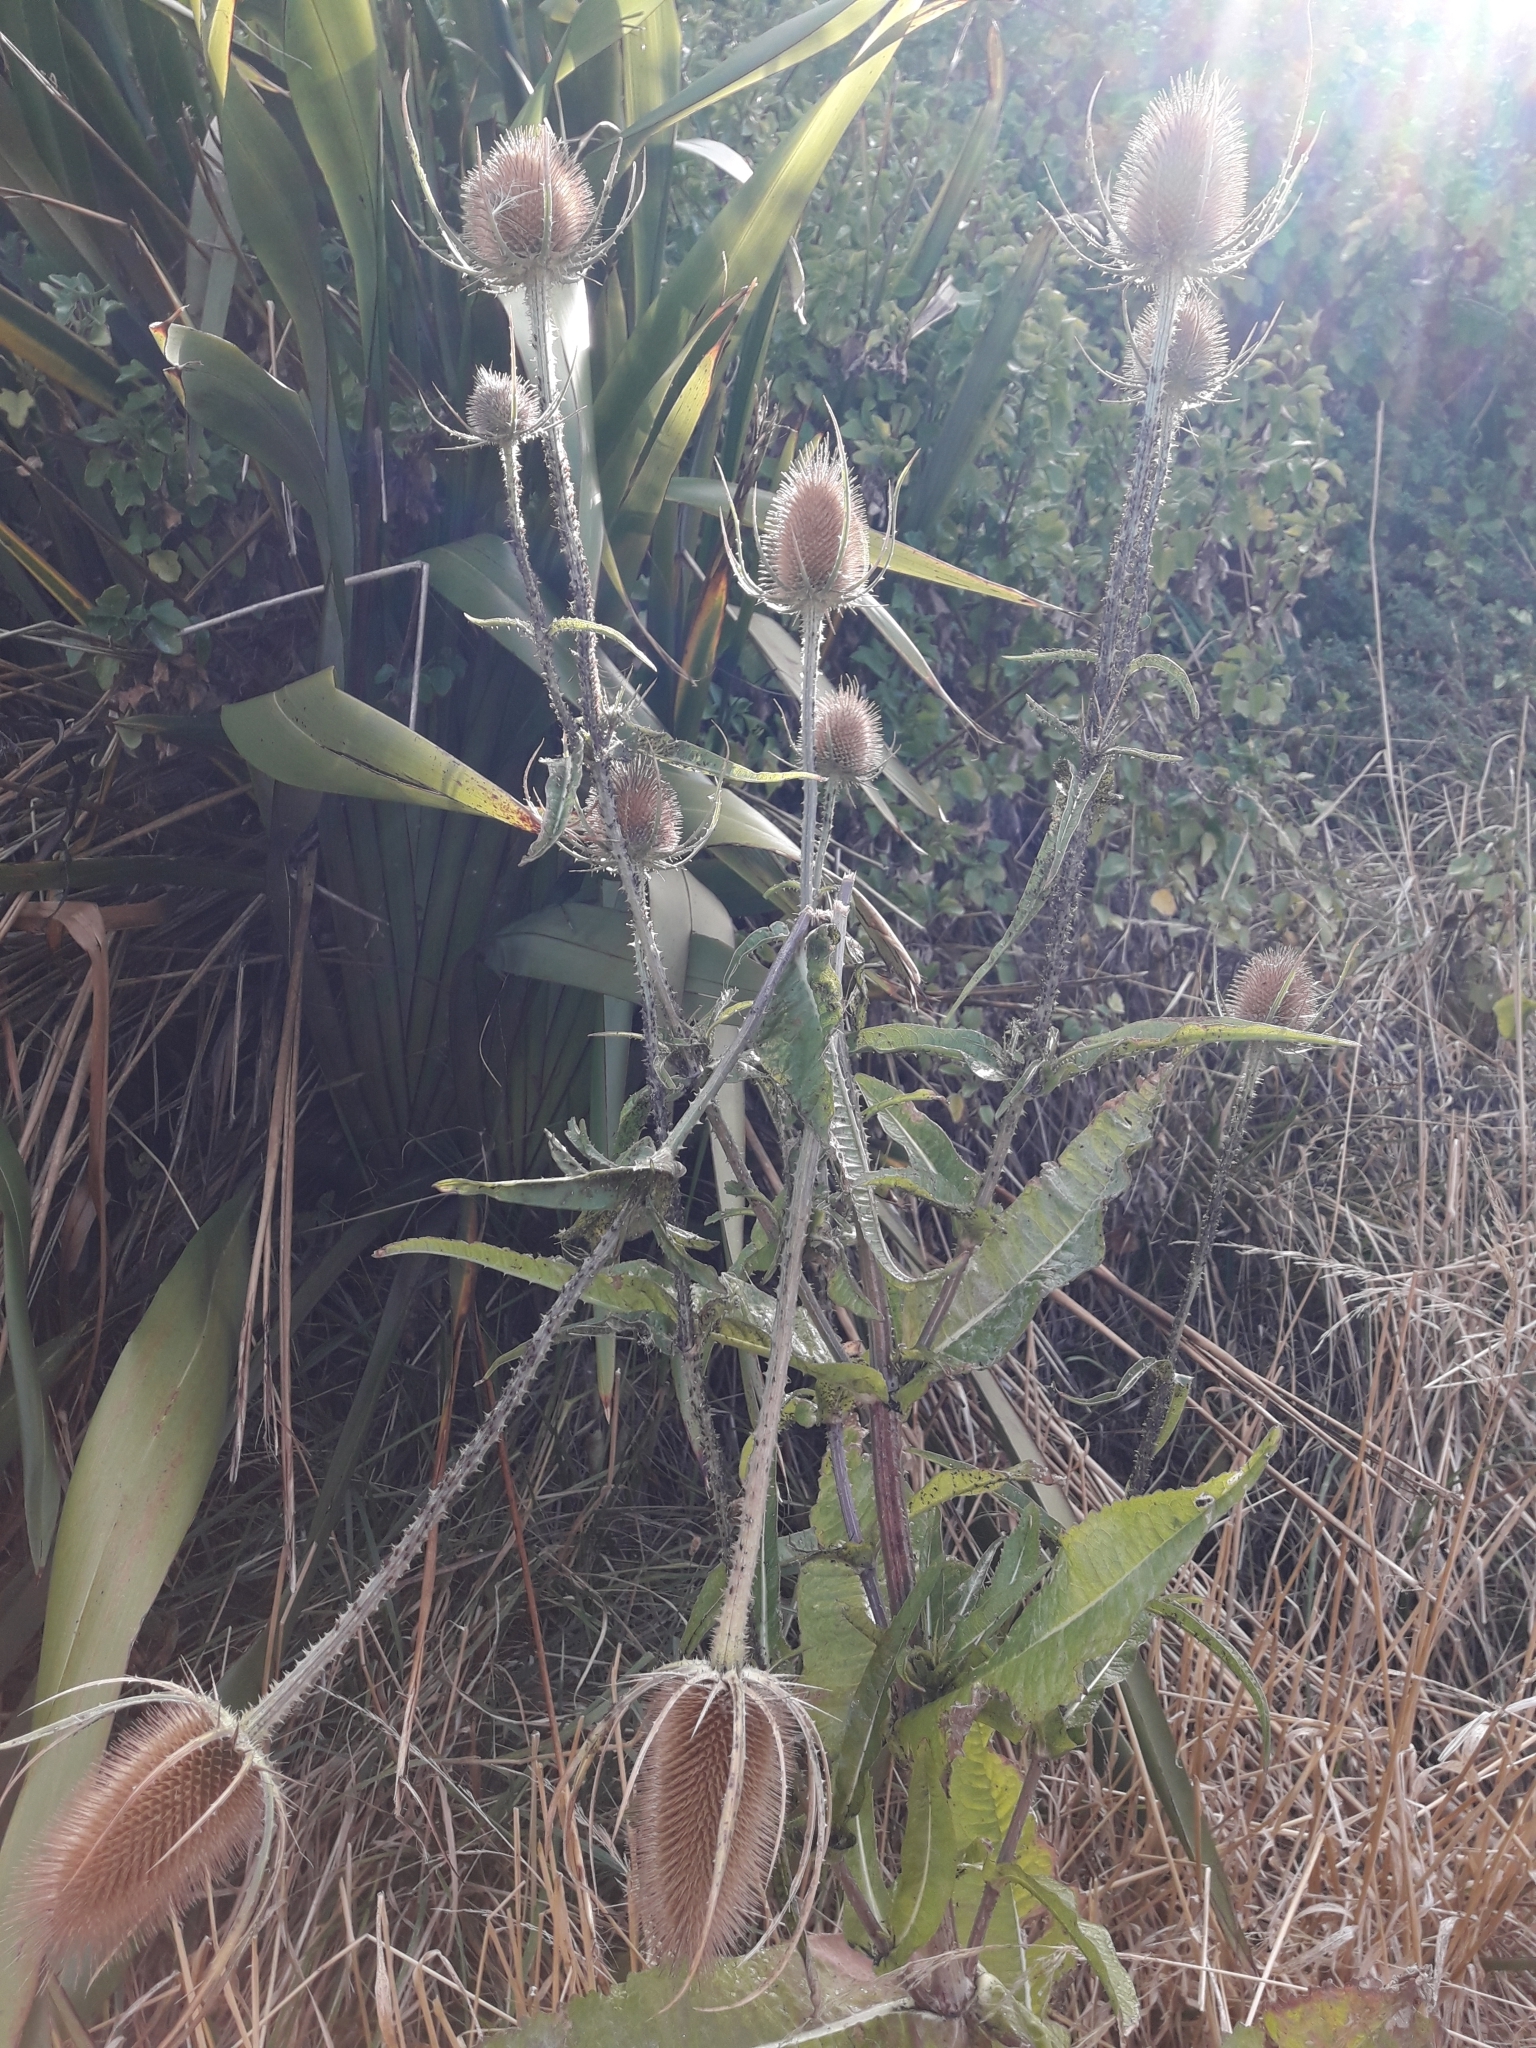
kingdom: Plantae
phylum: Tracheophyta
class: Magnoliopsida
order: Dipsacales
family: Caprifoliaceae
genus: Dipsacus
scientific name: Dipsacus fullonum
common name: Teasel
